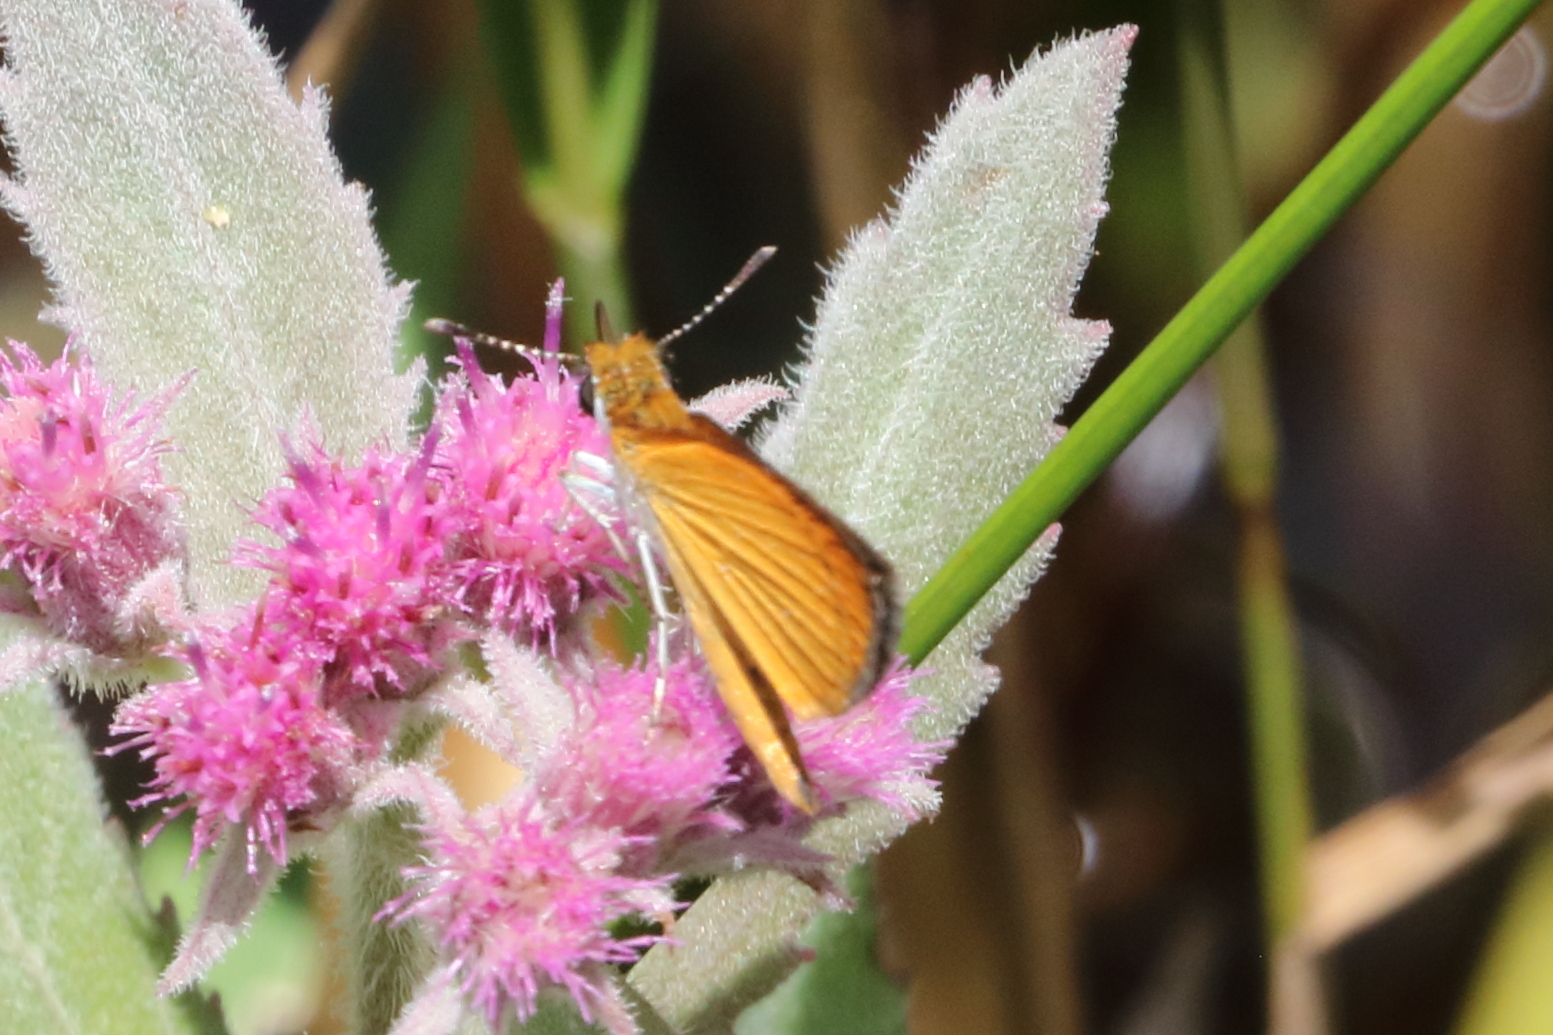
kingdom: Animalia
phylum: Arthropoda
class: Insecta
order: Lepidoptera
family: Hesperiidae
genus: Ancyloxypha
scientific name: Ancyloxypha numitor
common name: Least skipper
